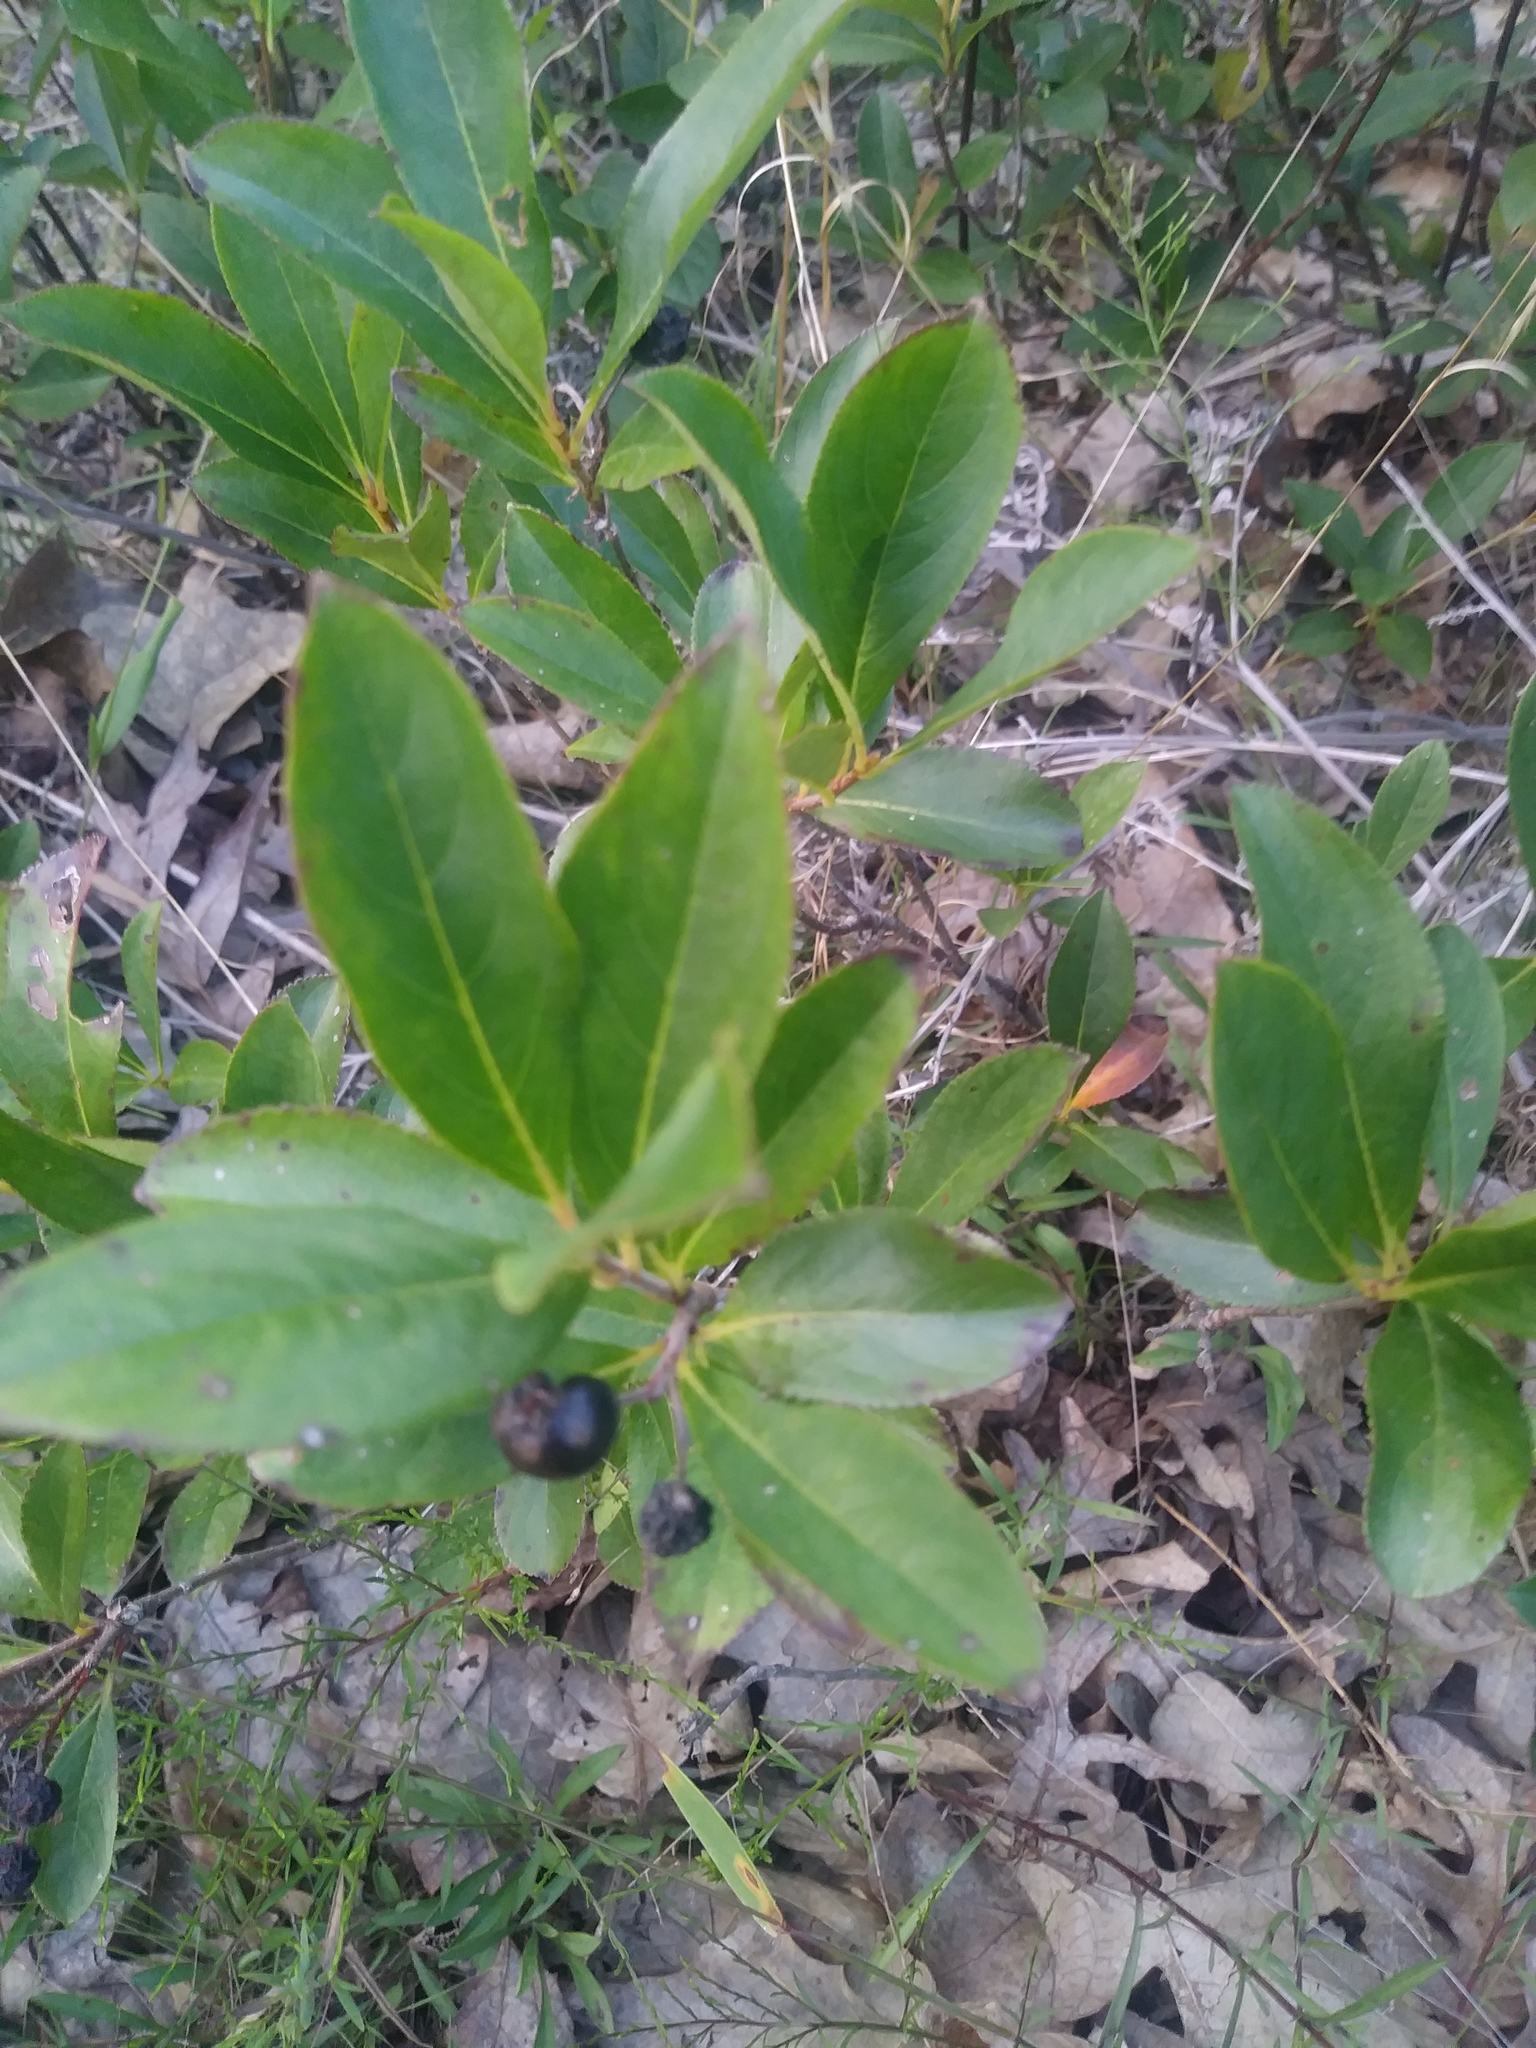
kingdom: Plantae
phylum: Tracheophyta
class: Magnoliopsida
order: Rosales
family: Rosaceae
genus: Aronia
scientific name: Aronia melanocarpa
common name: Black chokeberry
